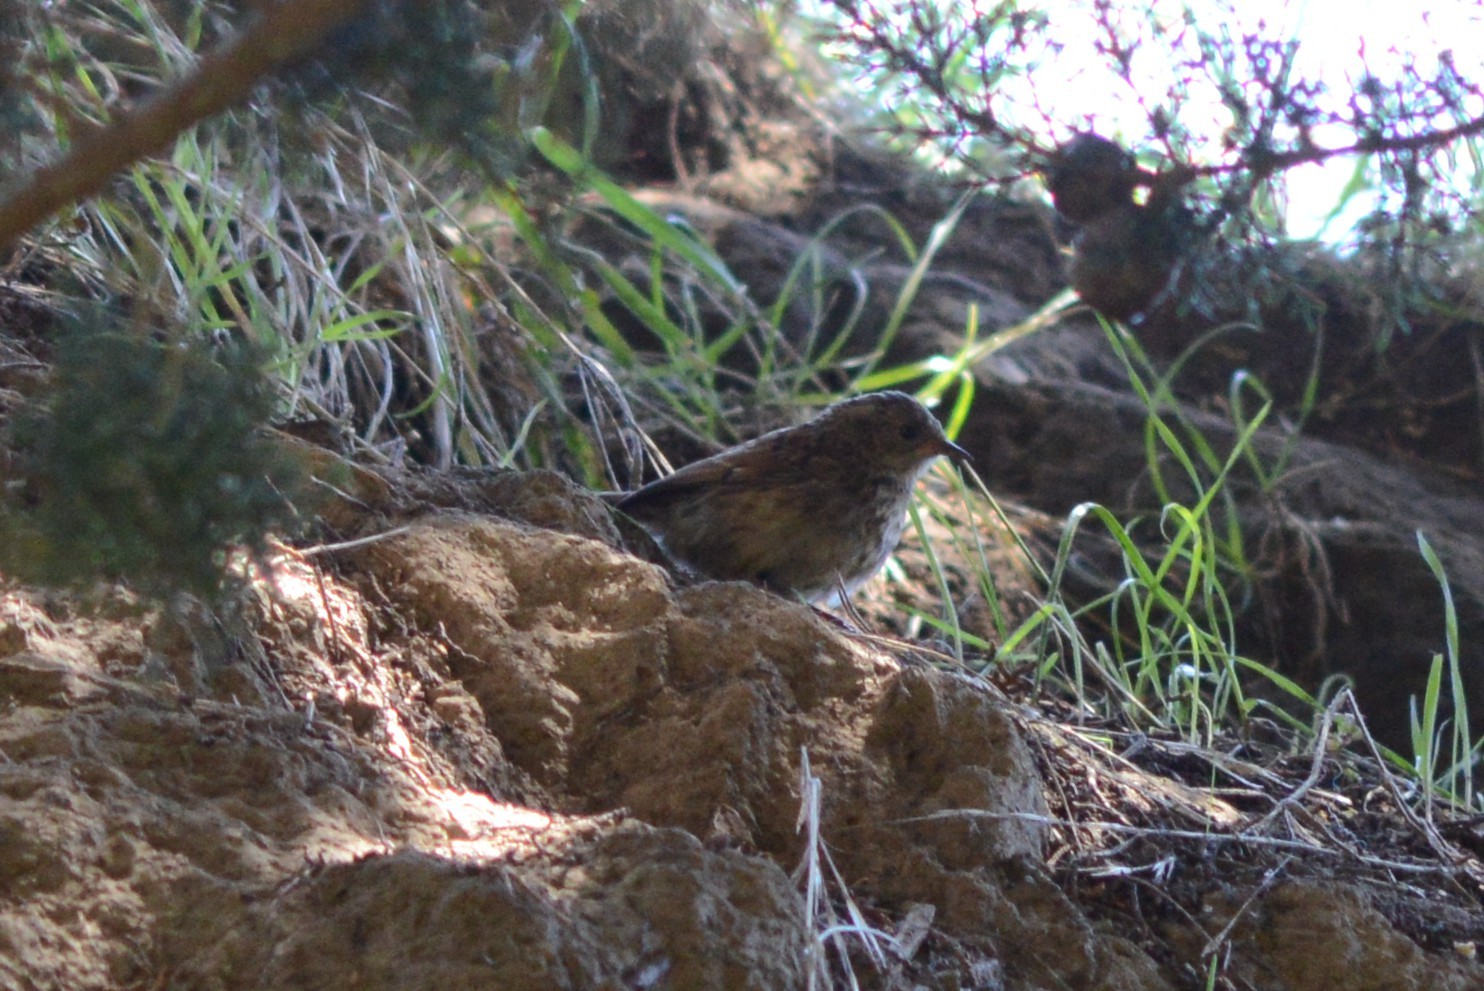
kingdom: Animalia
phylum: Chordata
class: Aves
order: Passeriformes
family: Prunellidae
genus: Prunella
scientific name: Prunella modularis
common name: Dunnock
